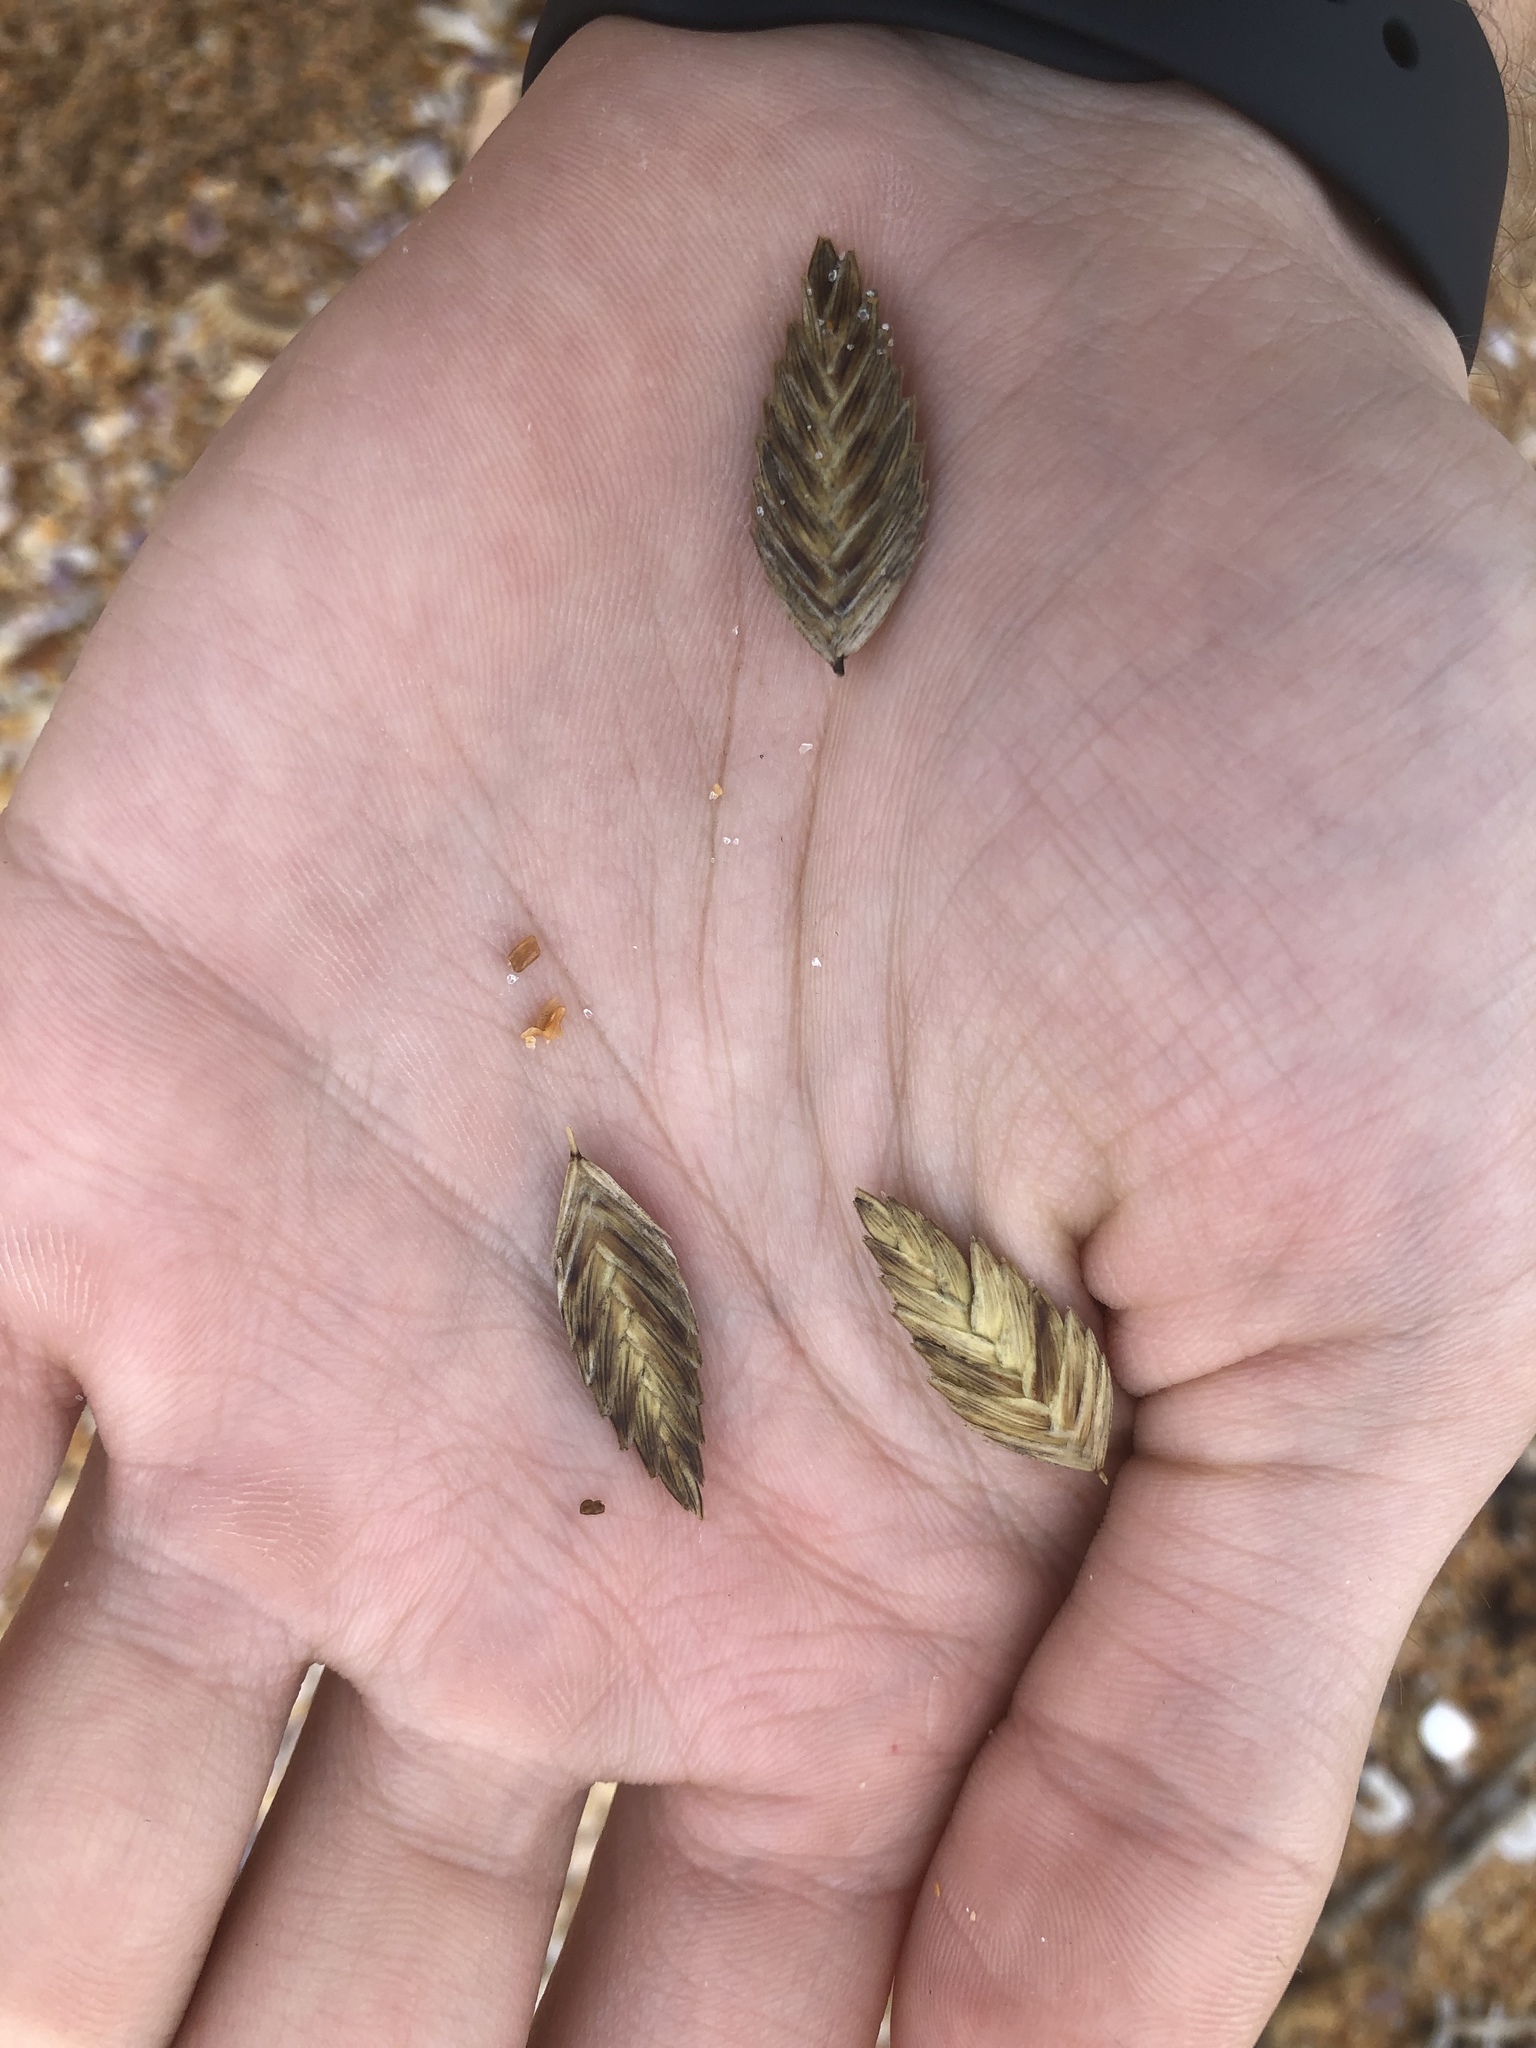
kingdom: Plantae
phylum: Tracheophyta
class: Liliopsida
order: Poales
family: Poaceae
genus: Uniola
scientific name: Uniola paniculata
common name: Seaside-oats
